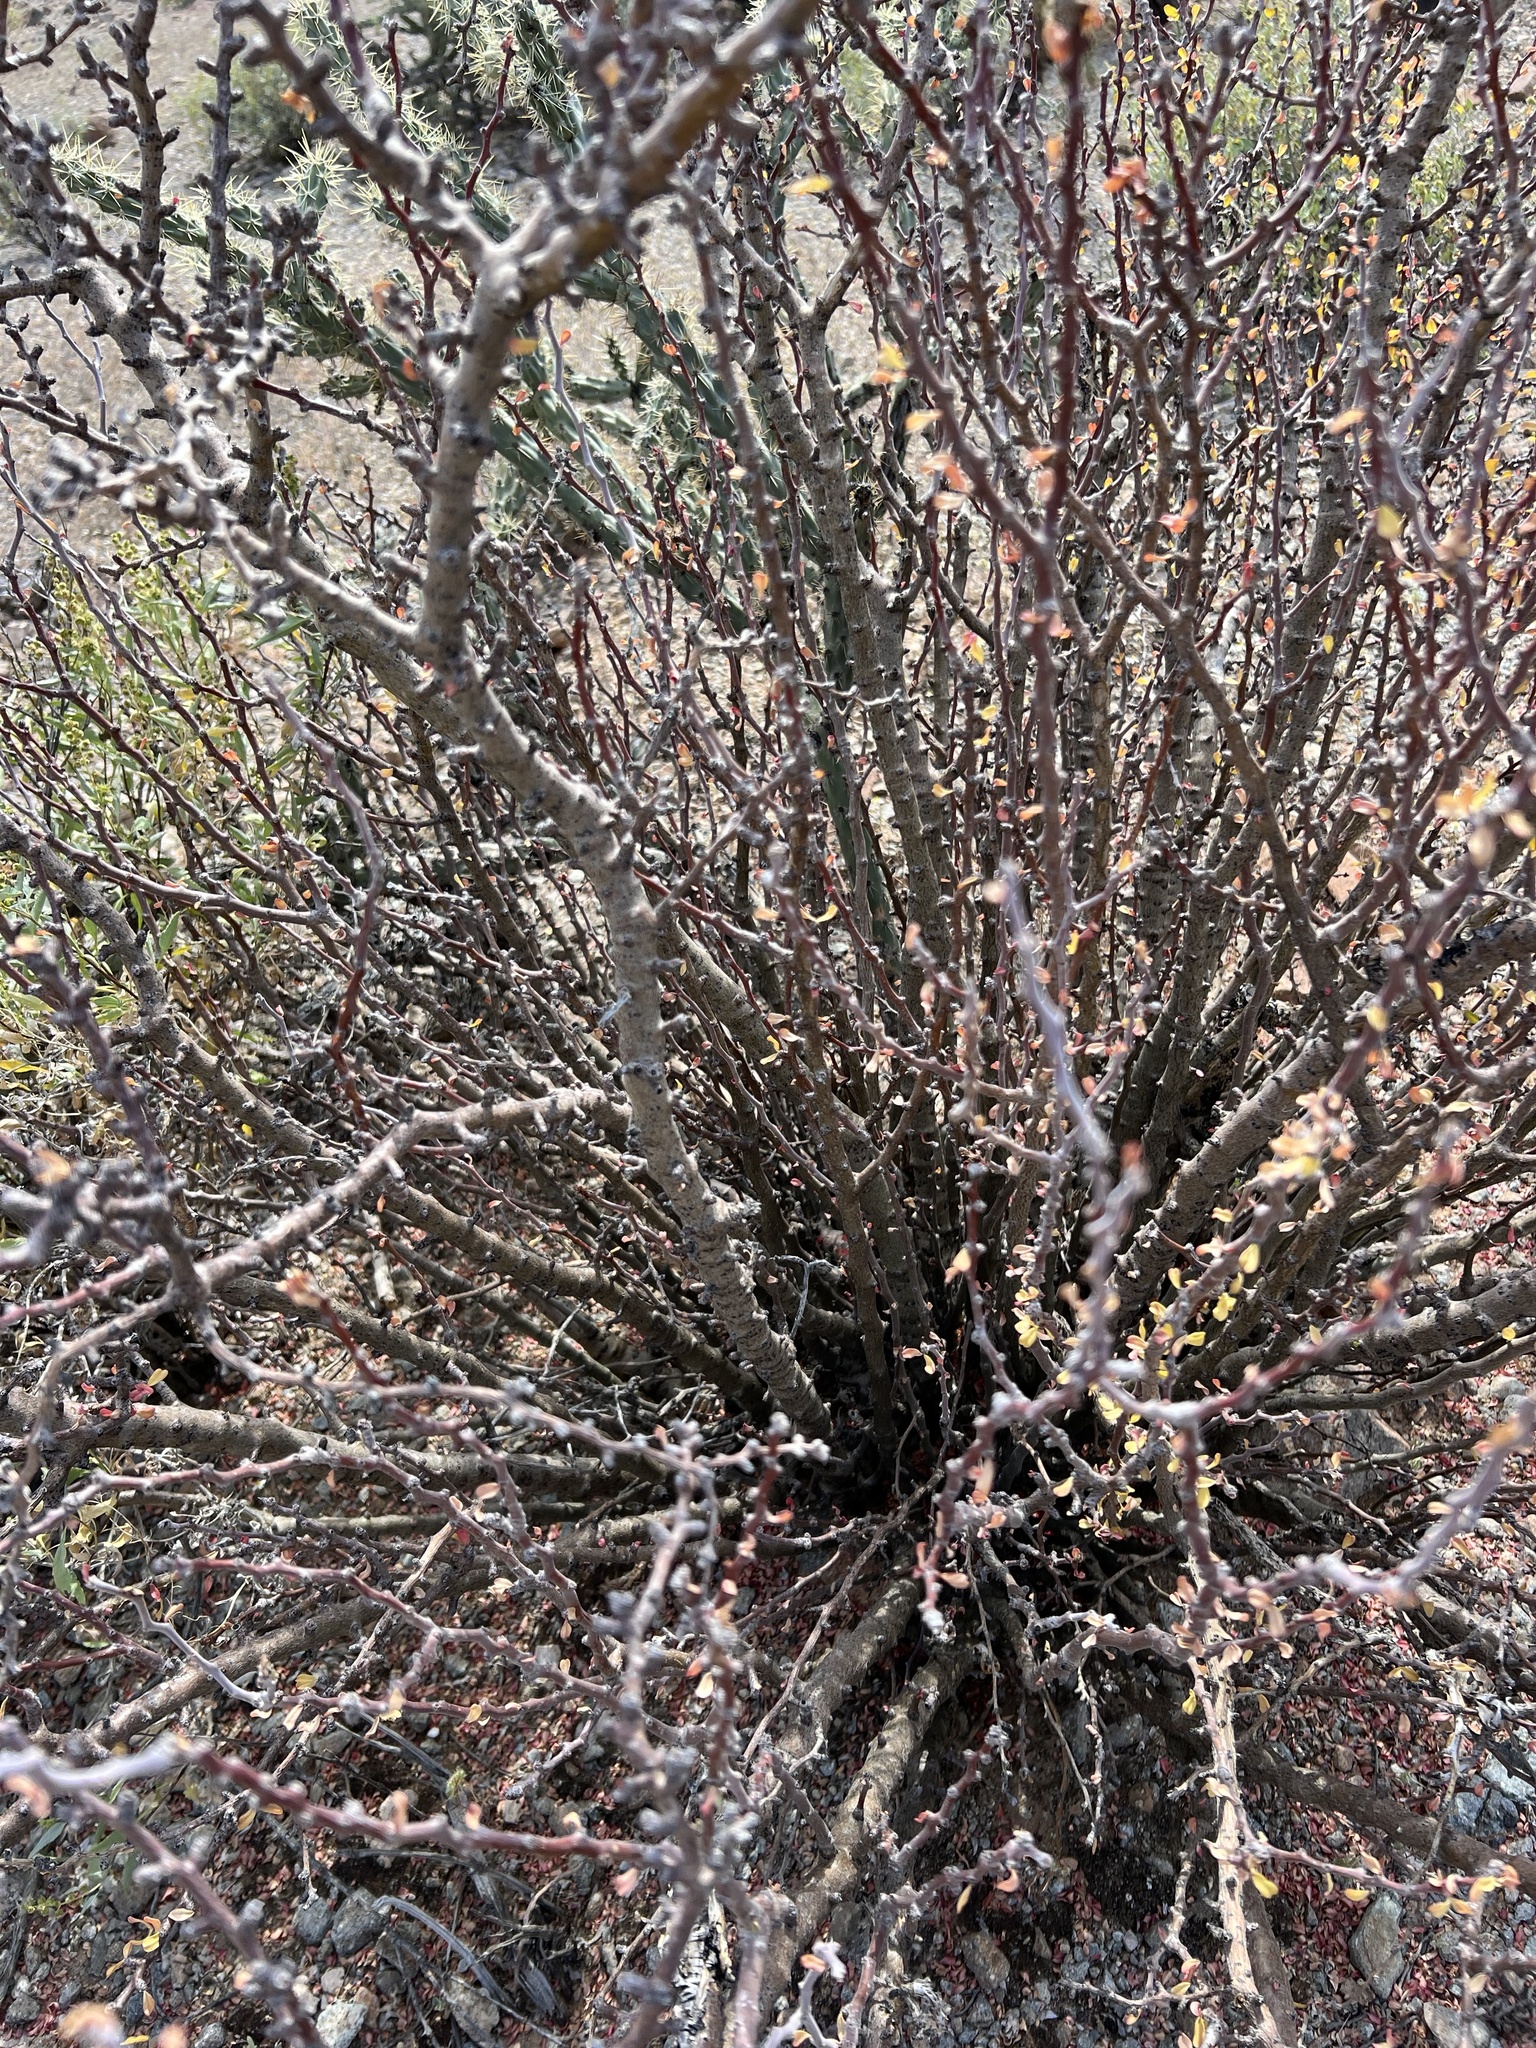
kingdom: Plantae
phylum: Tracheophyta
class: Magnoliopsida
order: Malpighiales
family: Euphorbiaceae
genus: Jatropha
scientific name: Jatropha cuneata
